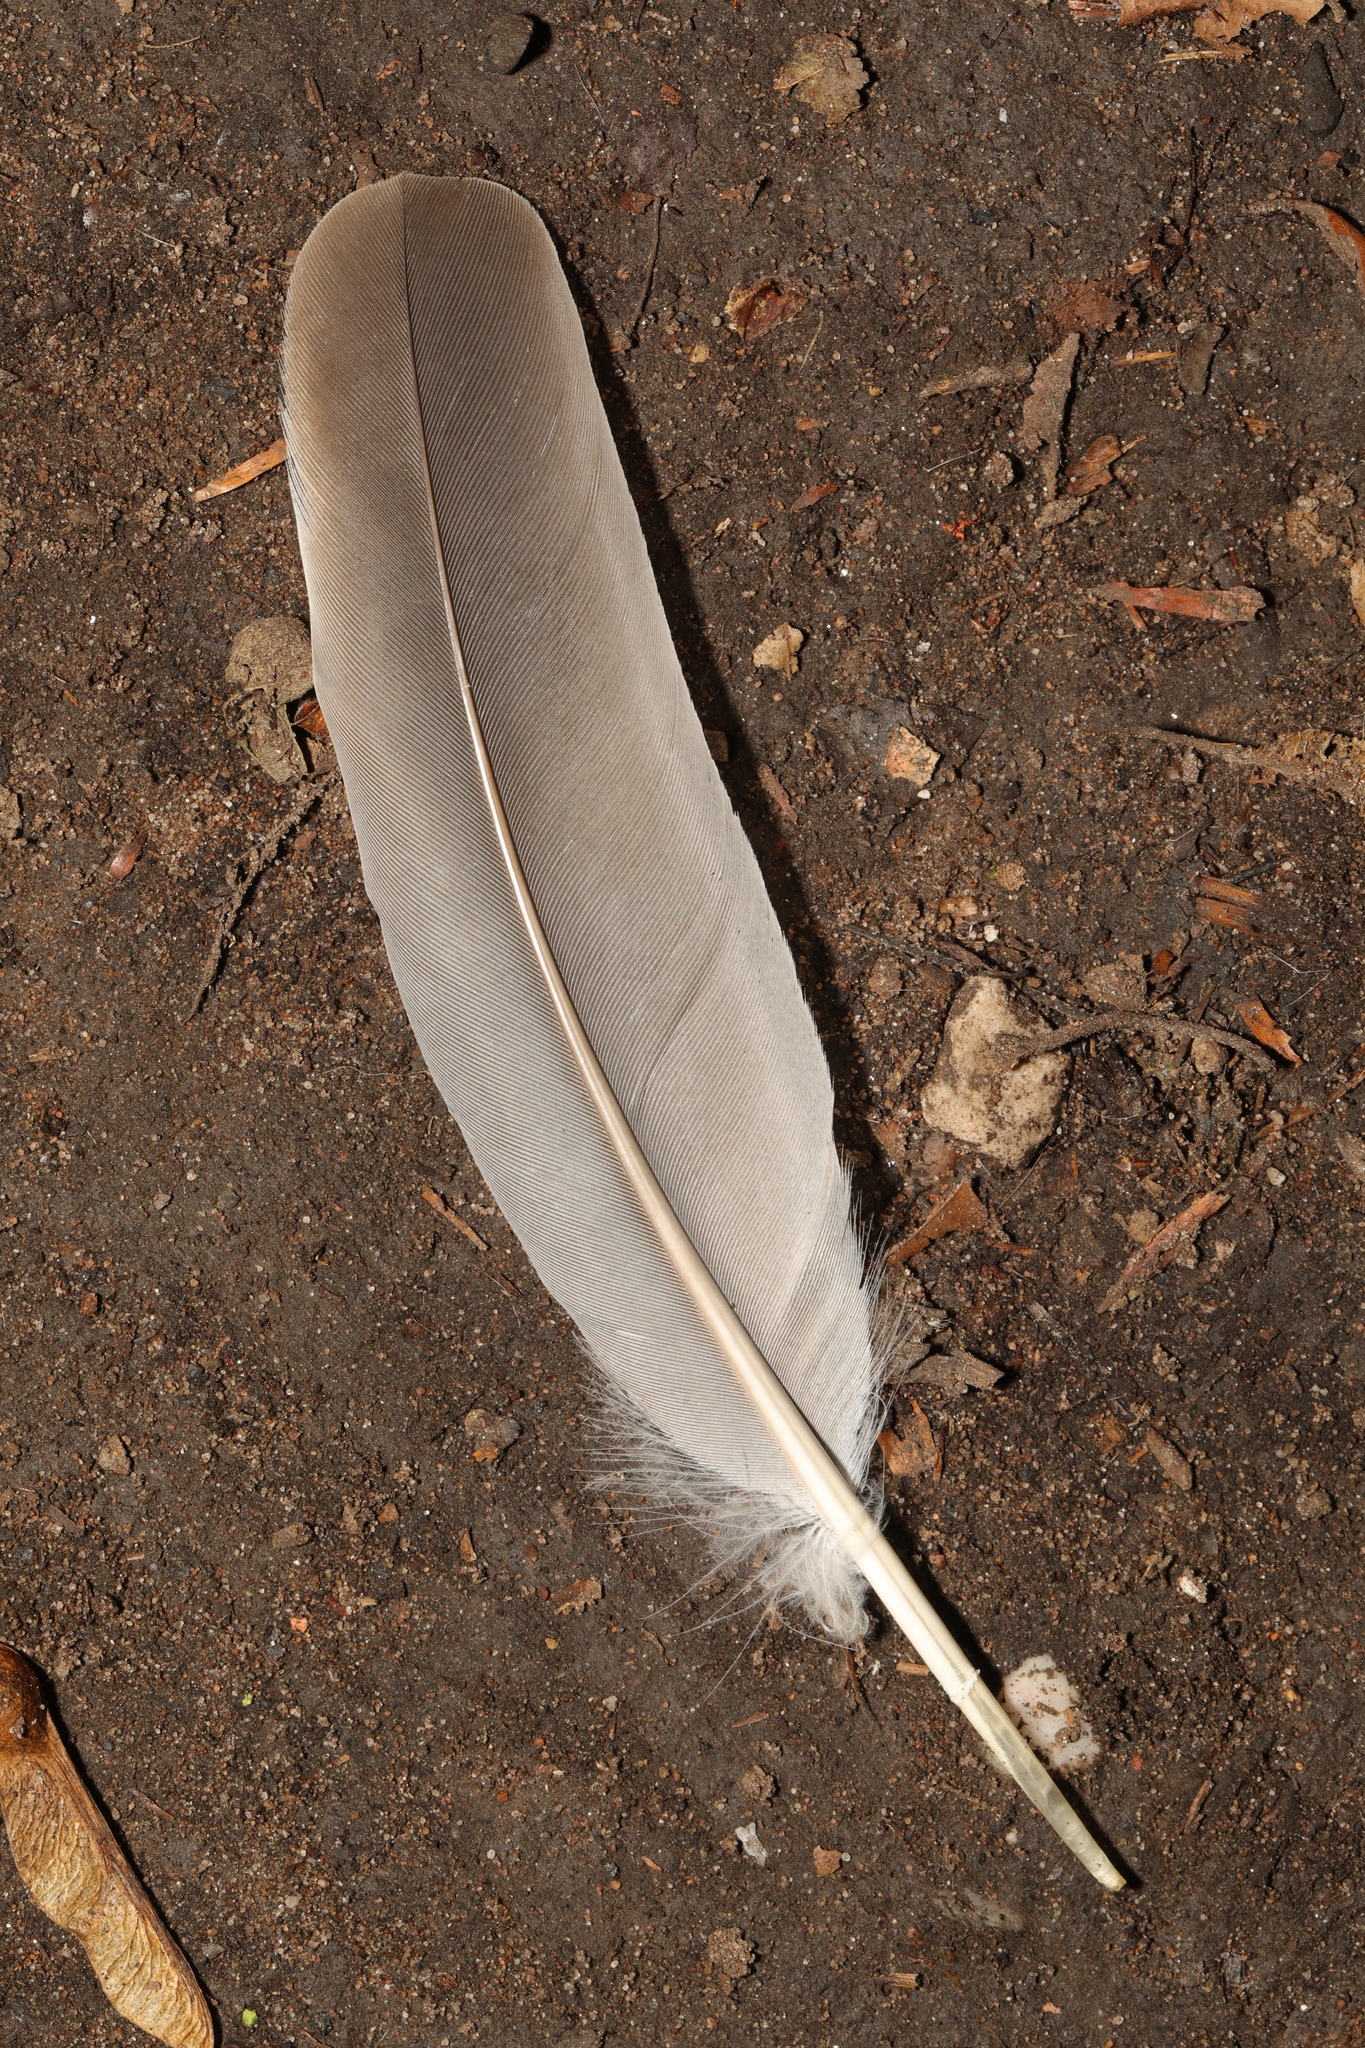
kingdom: Animalia
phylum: Chordata
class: Aves
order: Columbiformes
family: Columbidae
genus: Columba
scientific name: Columba palumbus
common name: Common wood pigeon
